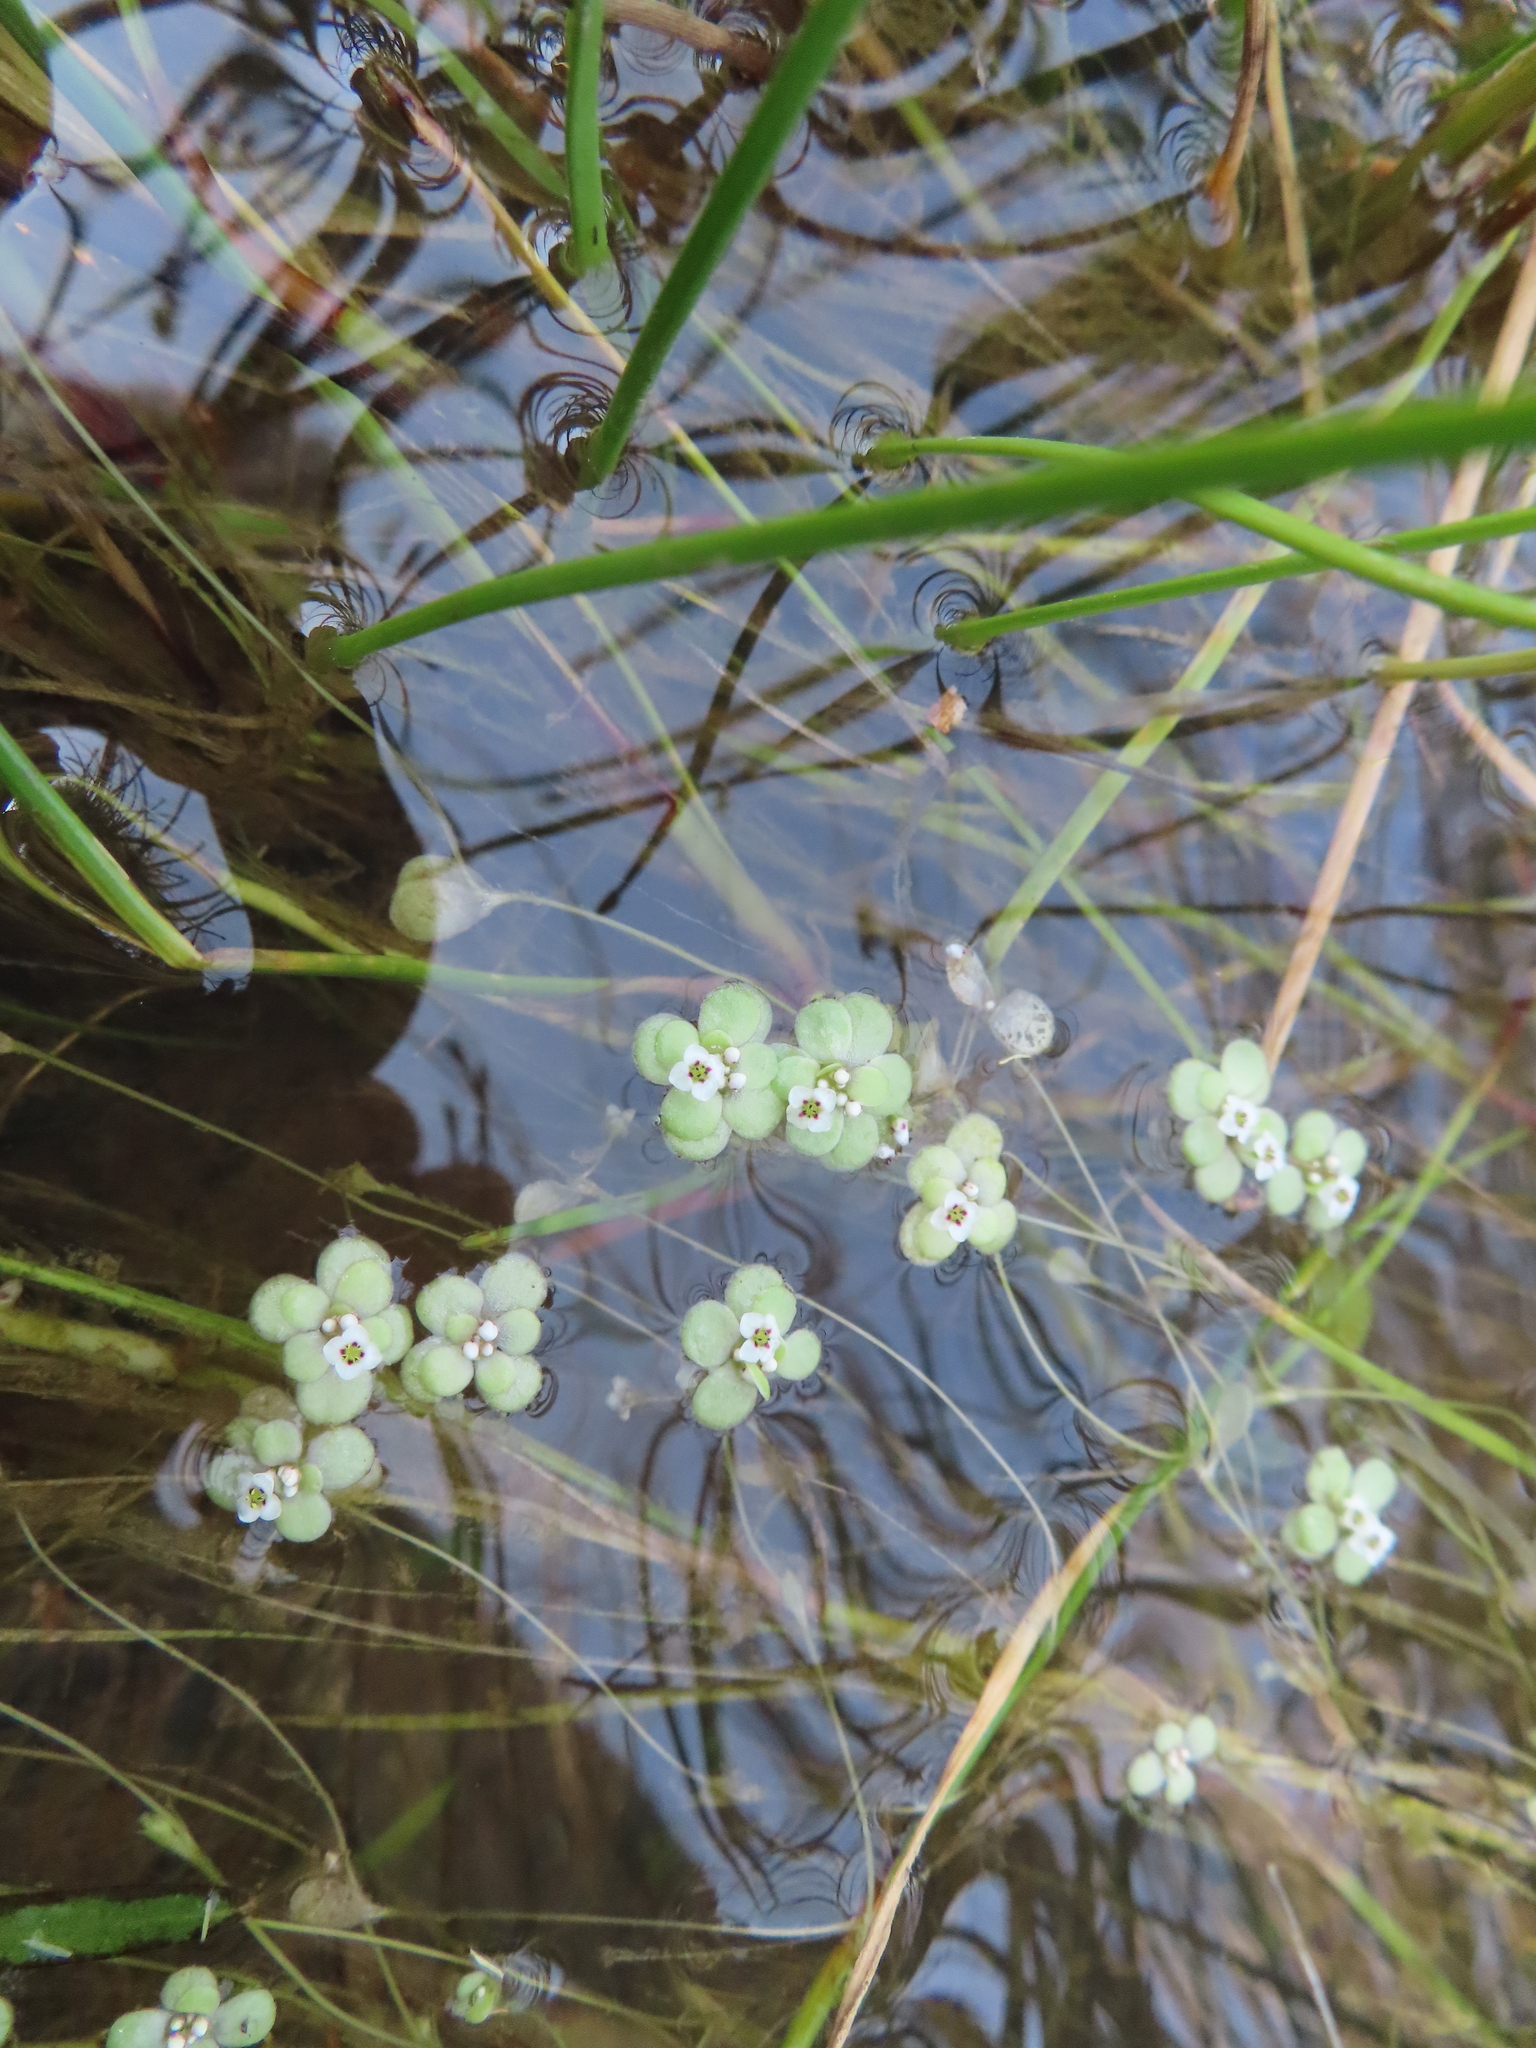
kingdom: Plantae
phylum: Tracheophyta
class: Magnoliopsida
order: Saxifragales
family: Crassulaceae
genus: Crassula
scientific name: Crassula natans
